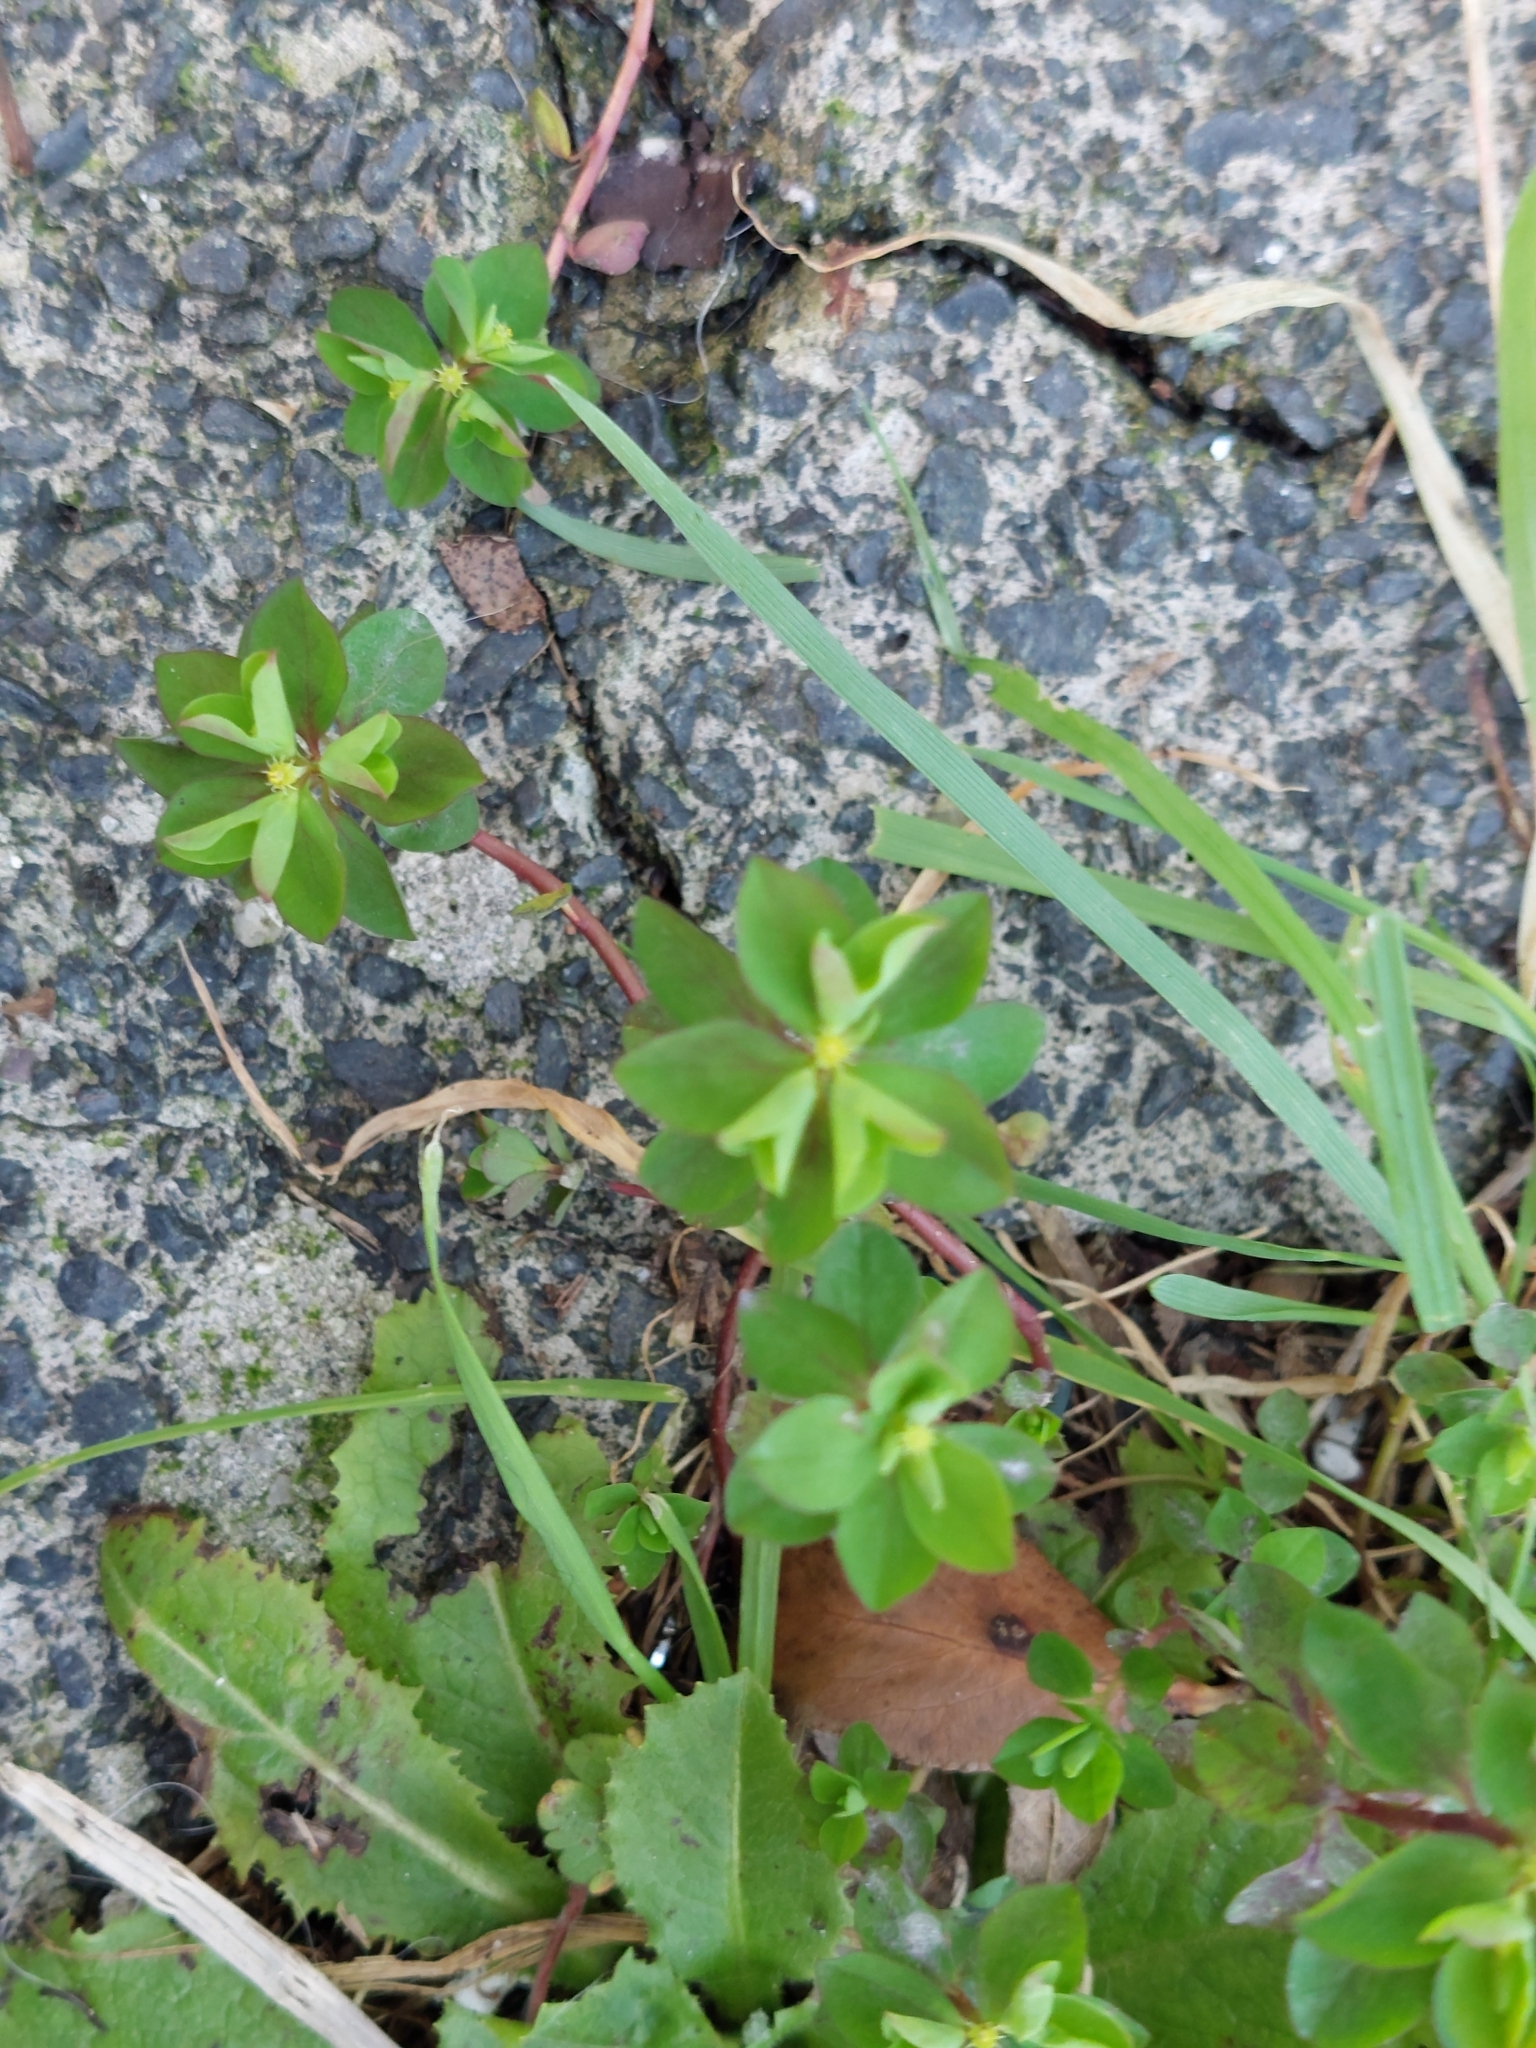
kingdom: Plantae
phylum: Tracheophyta
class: Magnoliopsida
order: Malpighiales
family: Euphorbiaceae
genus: Euphorbia
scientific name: Euphorbia peplus
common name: Petty spurge
